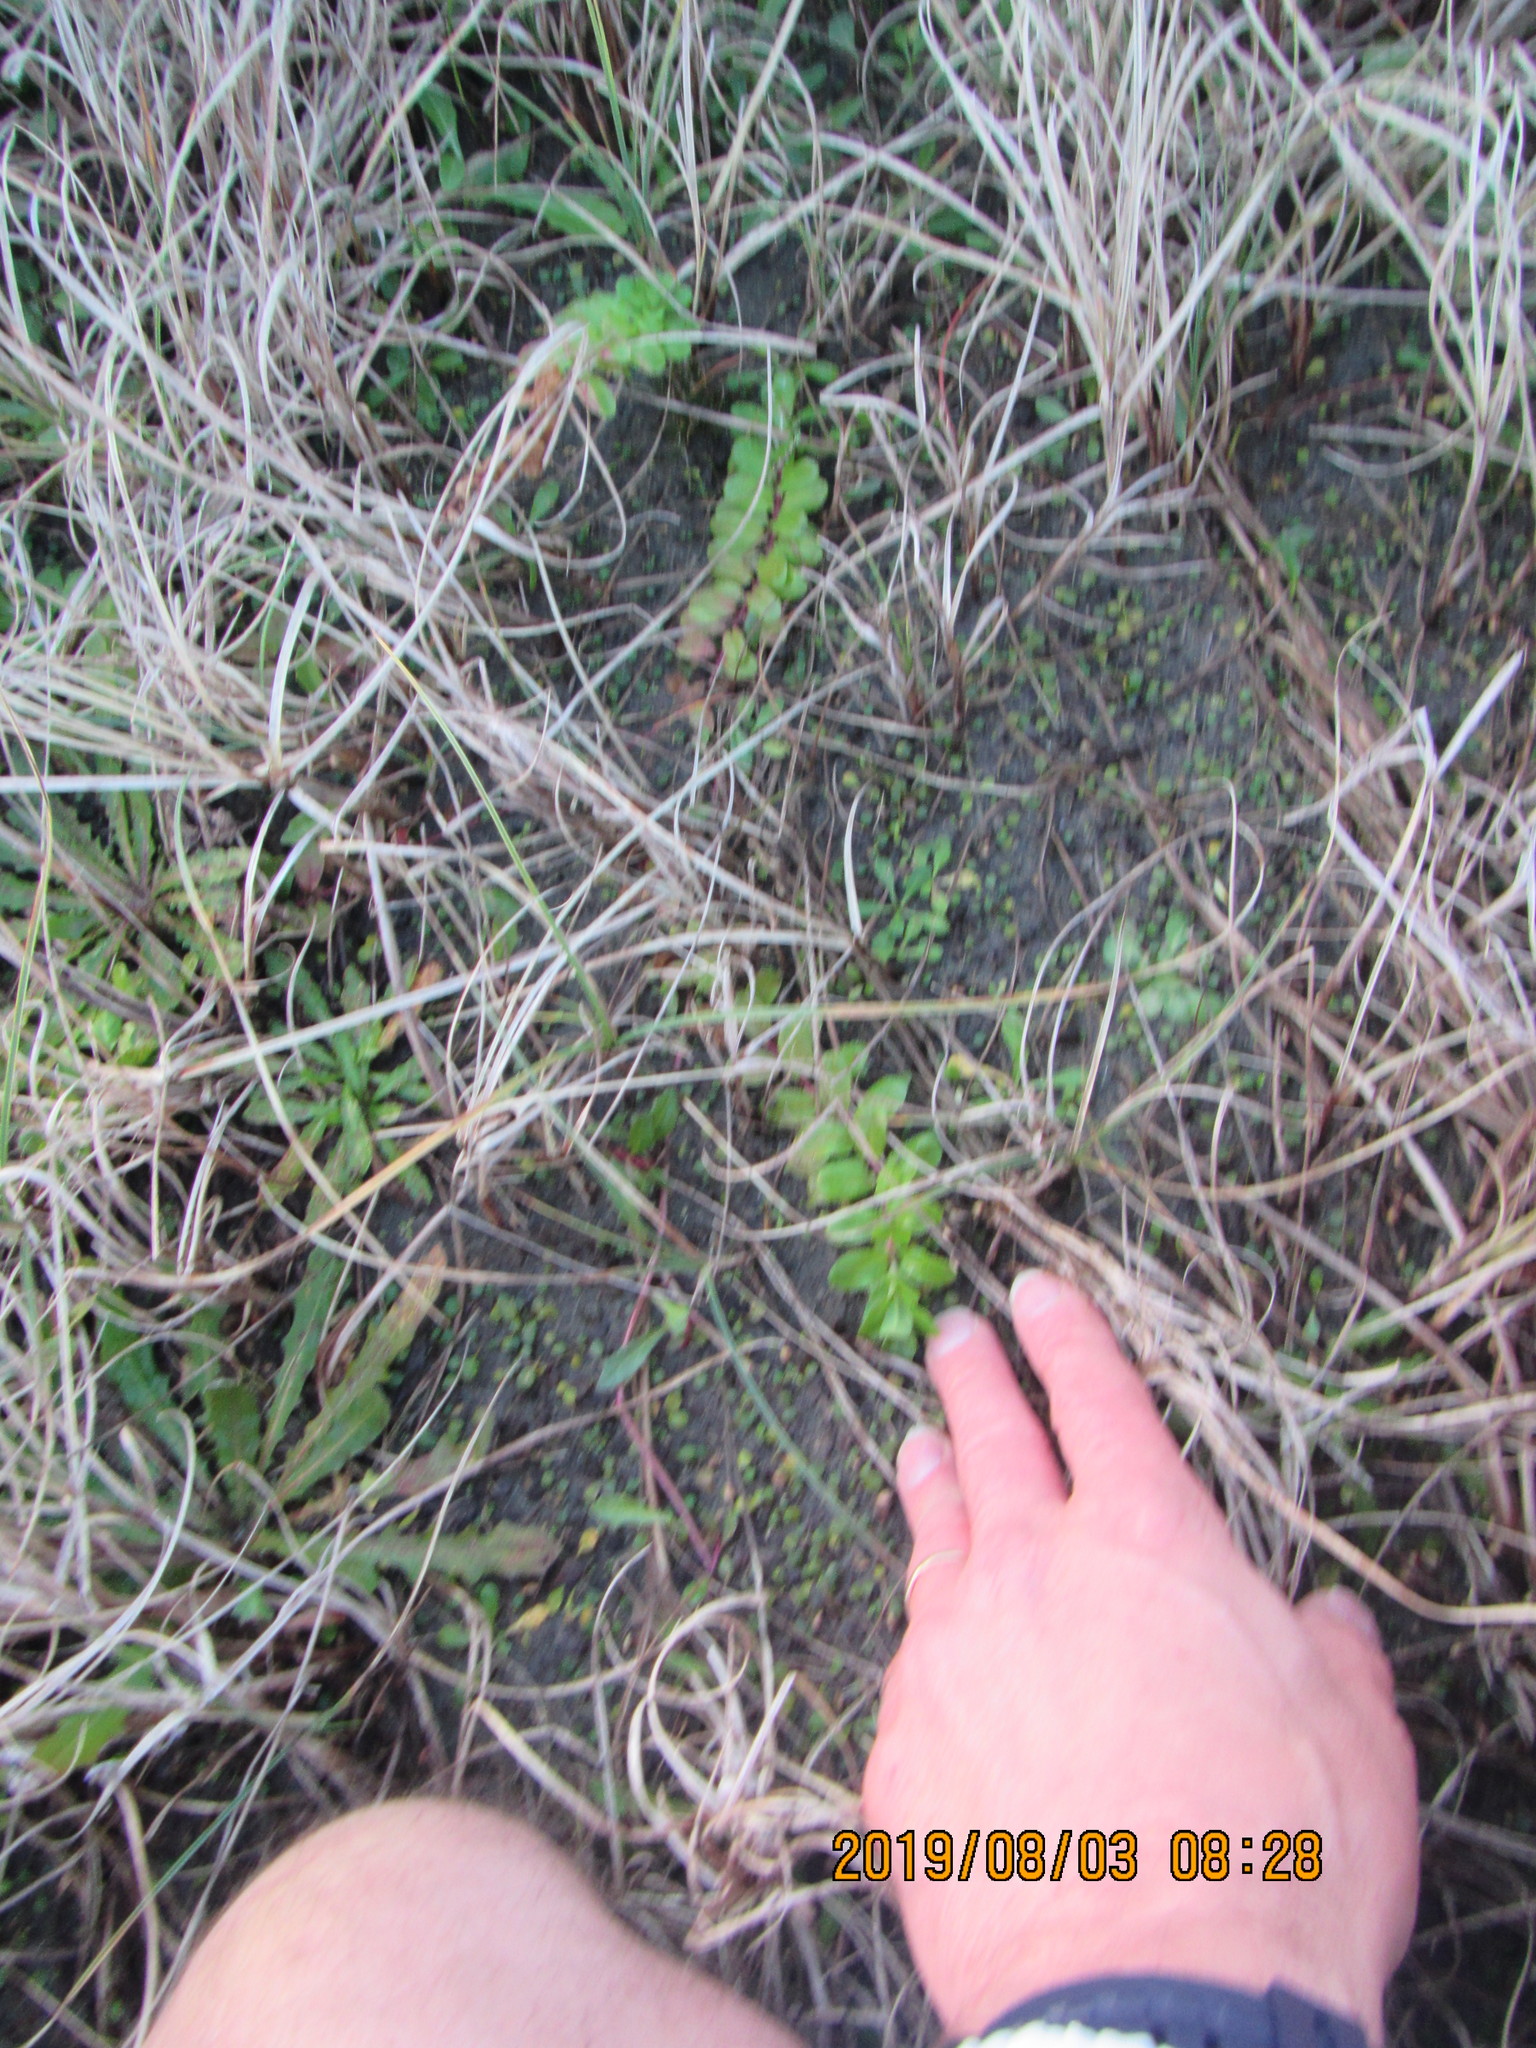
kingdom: Plantae
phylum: Tracheophyta
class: Magnoliopsida
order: Myrtales
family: Onagraceae
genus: Epilobium
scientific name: Epilobium billardiereanum
